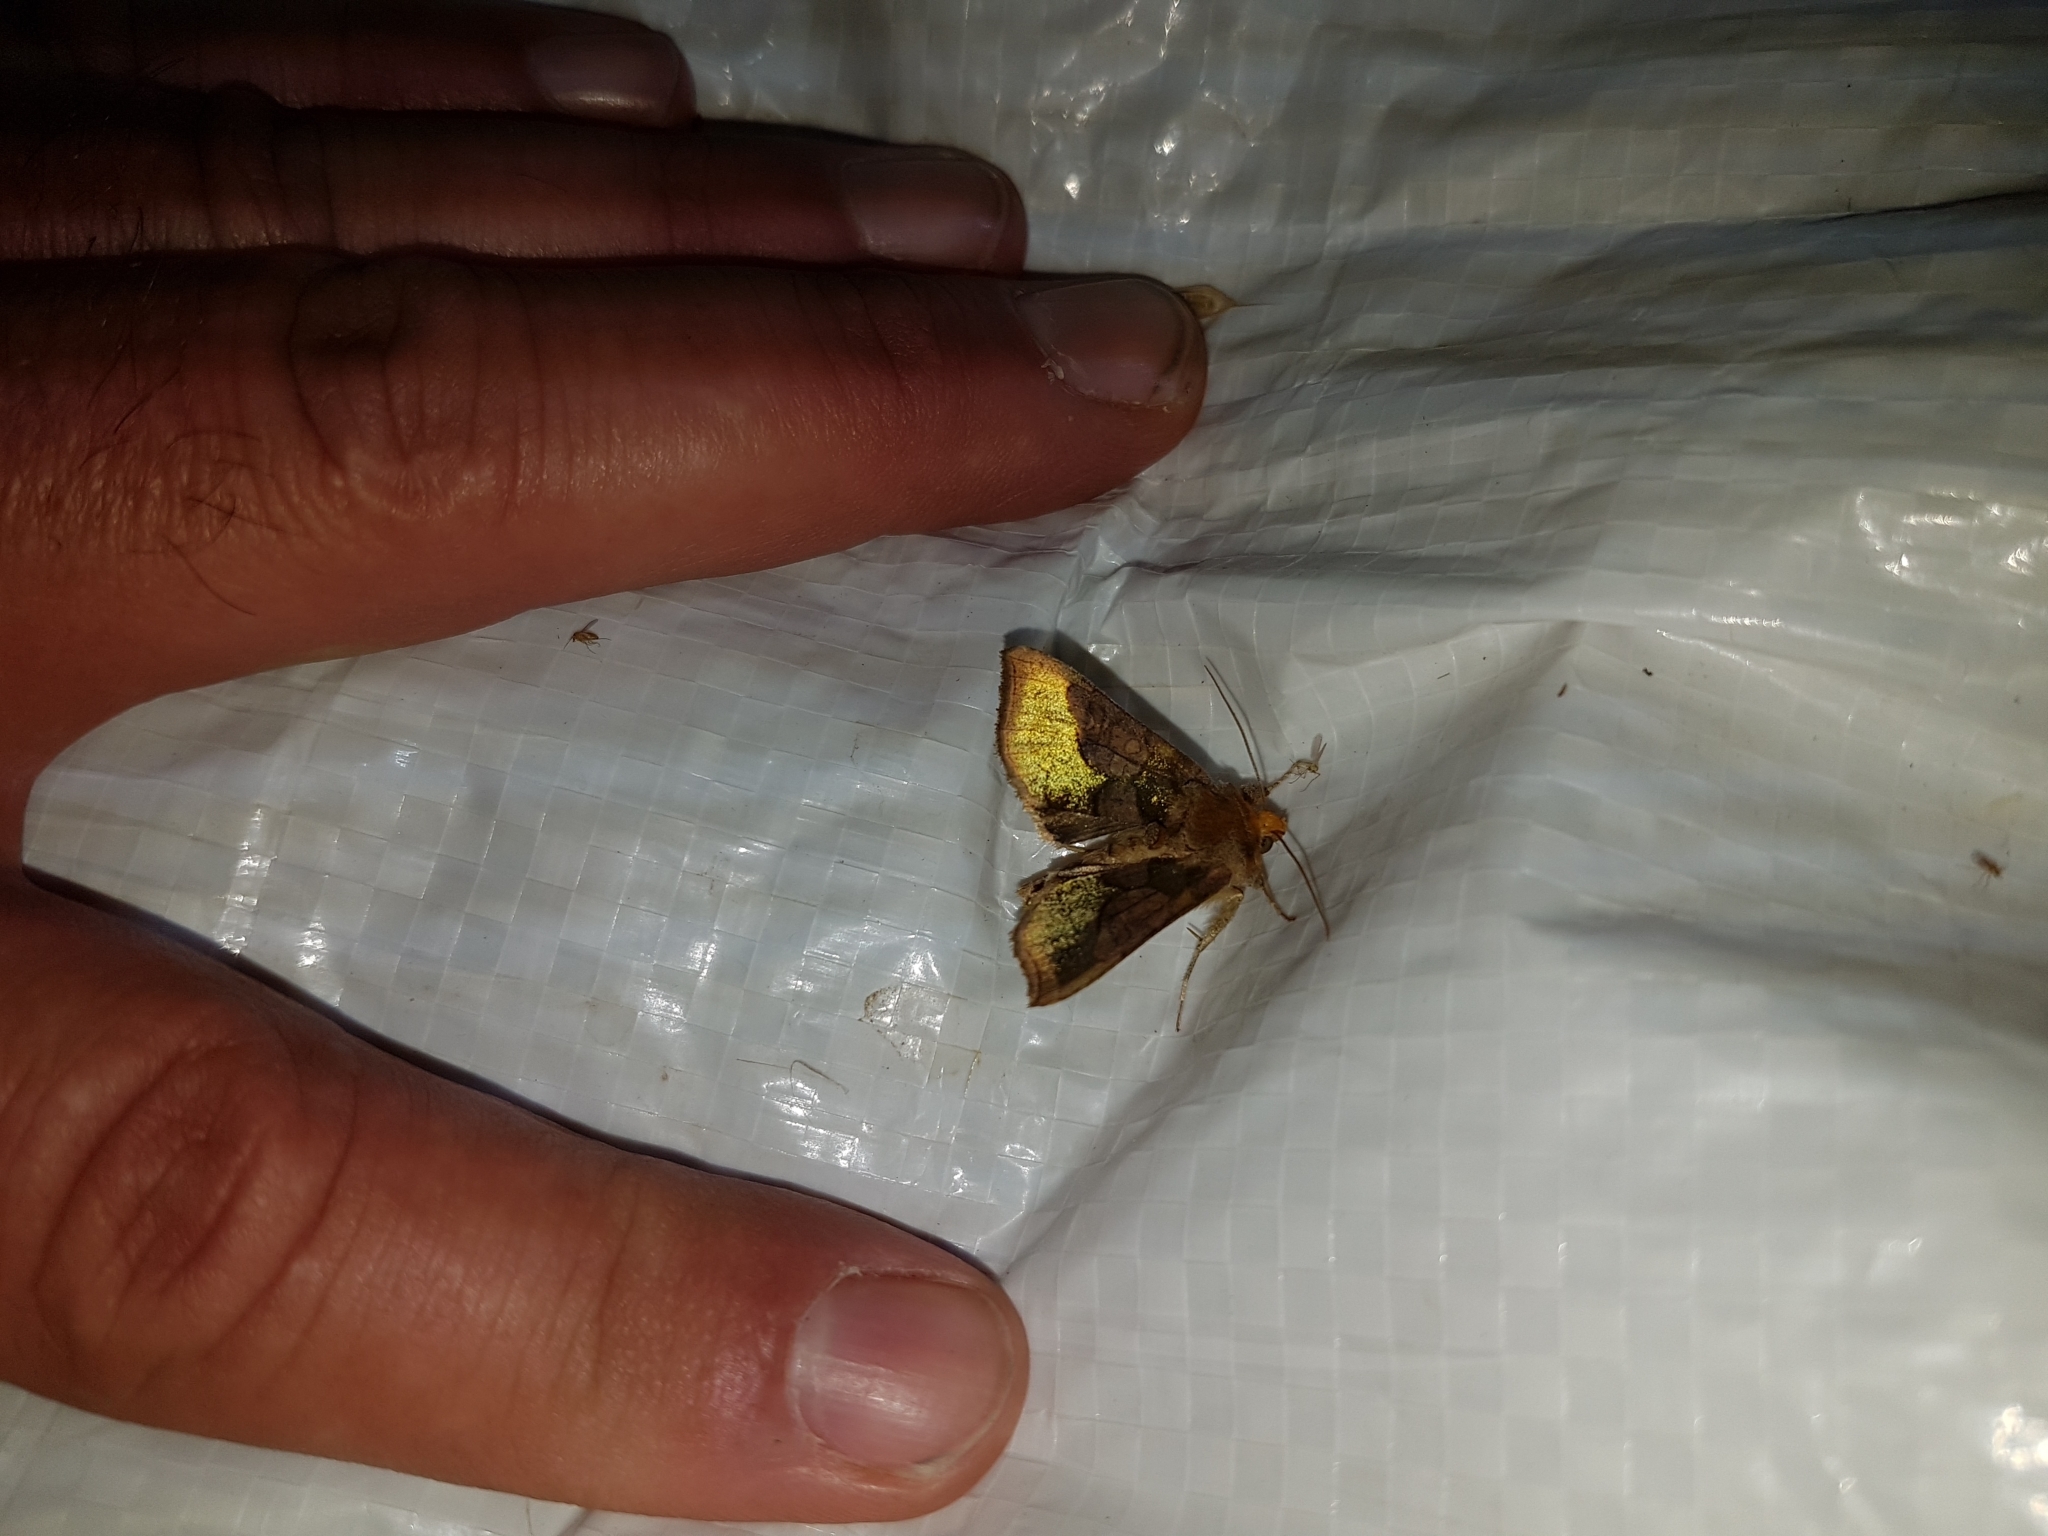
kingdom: Animalia
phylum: Arthropoda
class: Insecta
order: Lepidoptera
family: Noctuidae
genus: Diachrysia
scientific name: Diachrysia chrysitis
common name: Burnished brass
